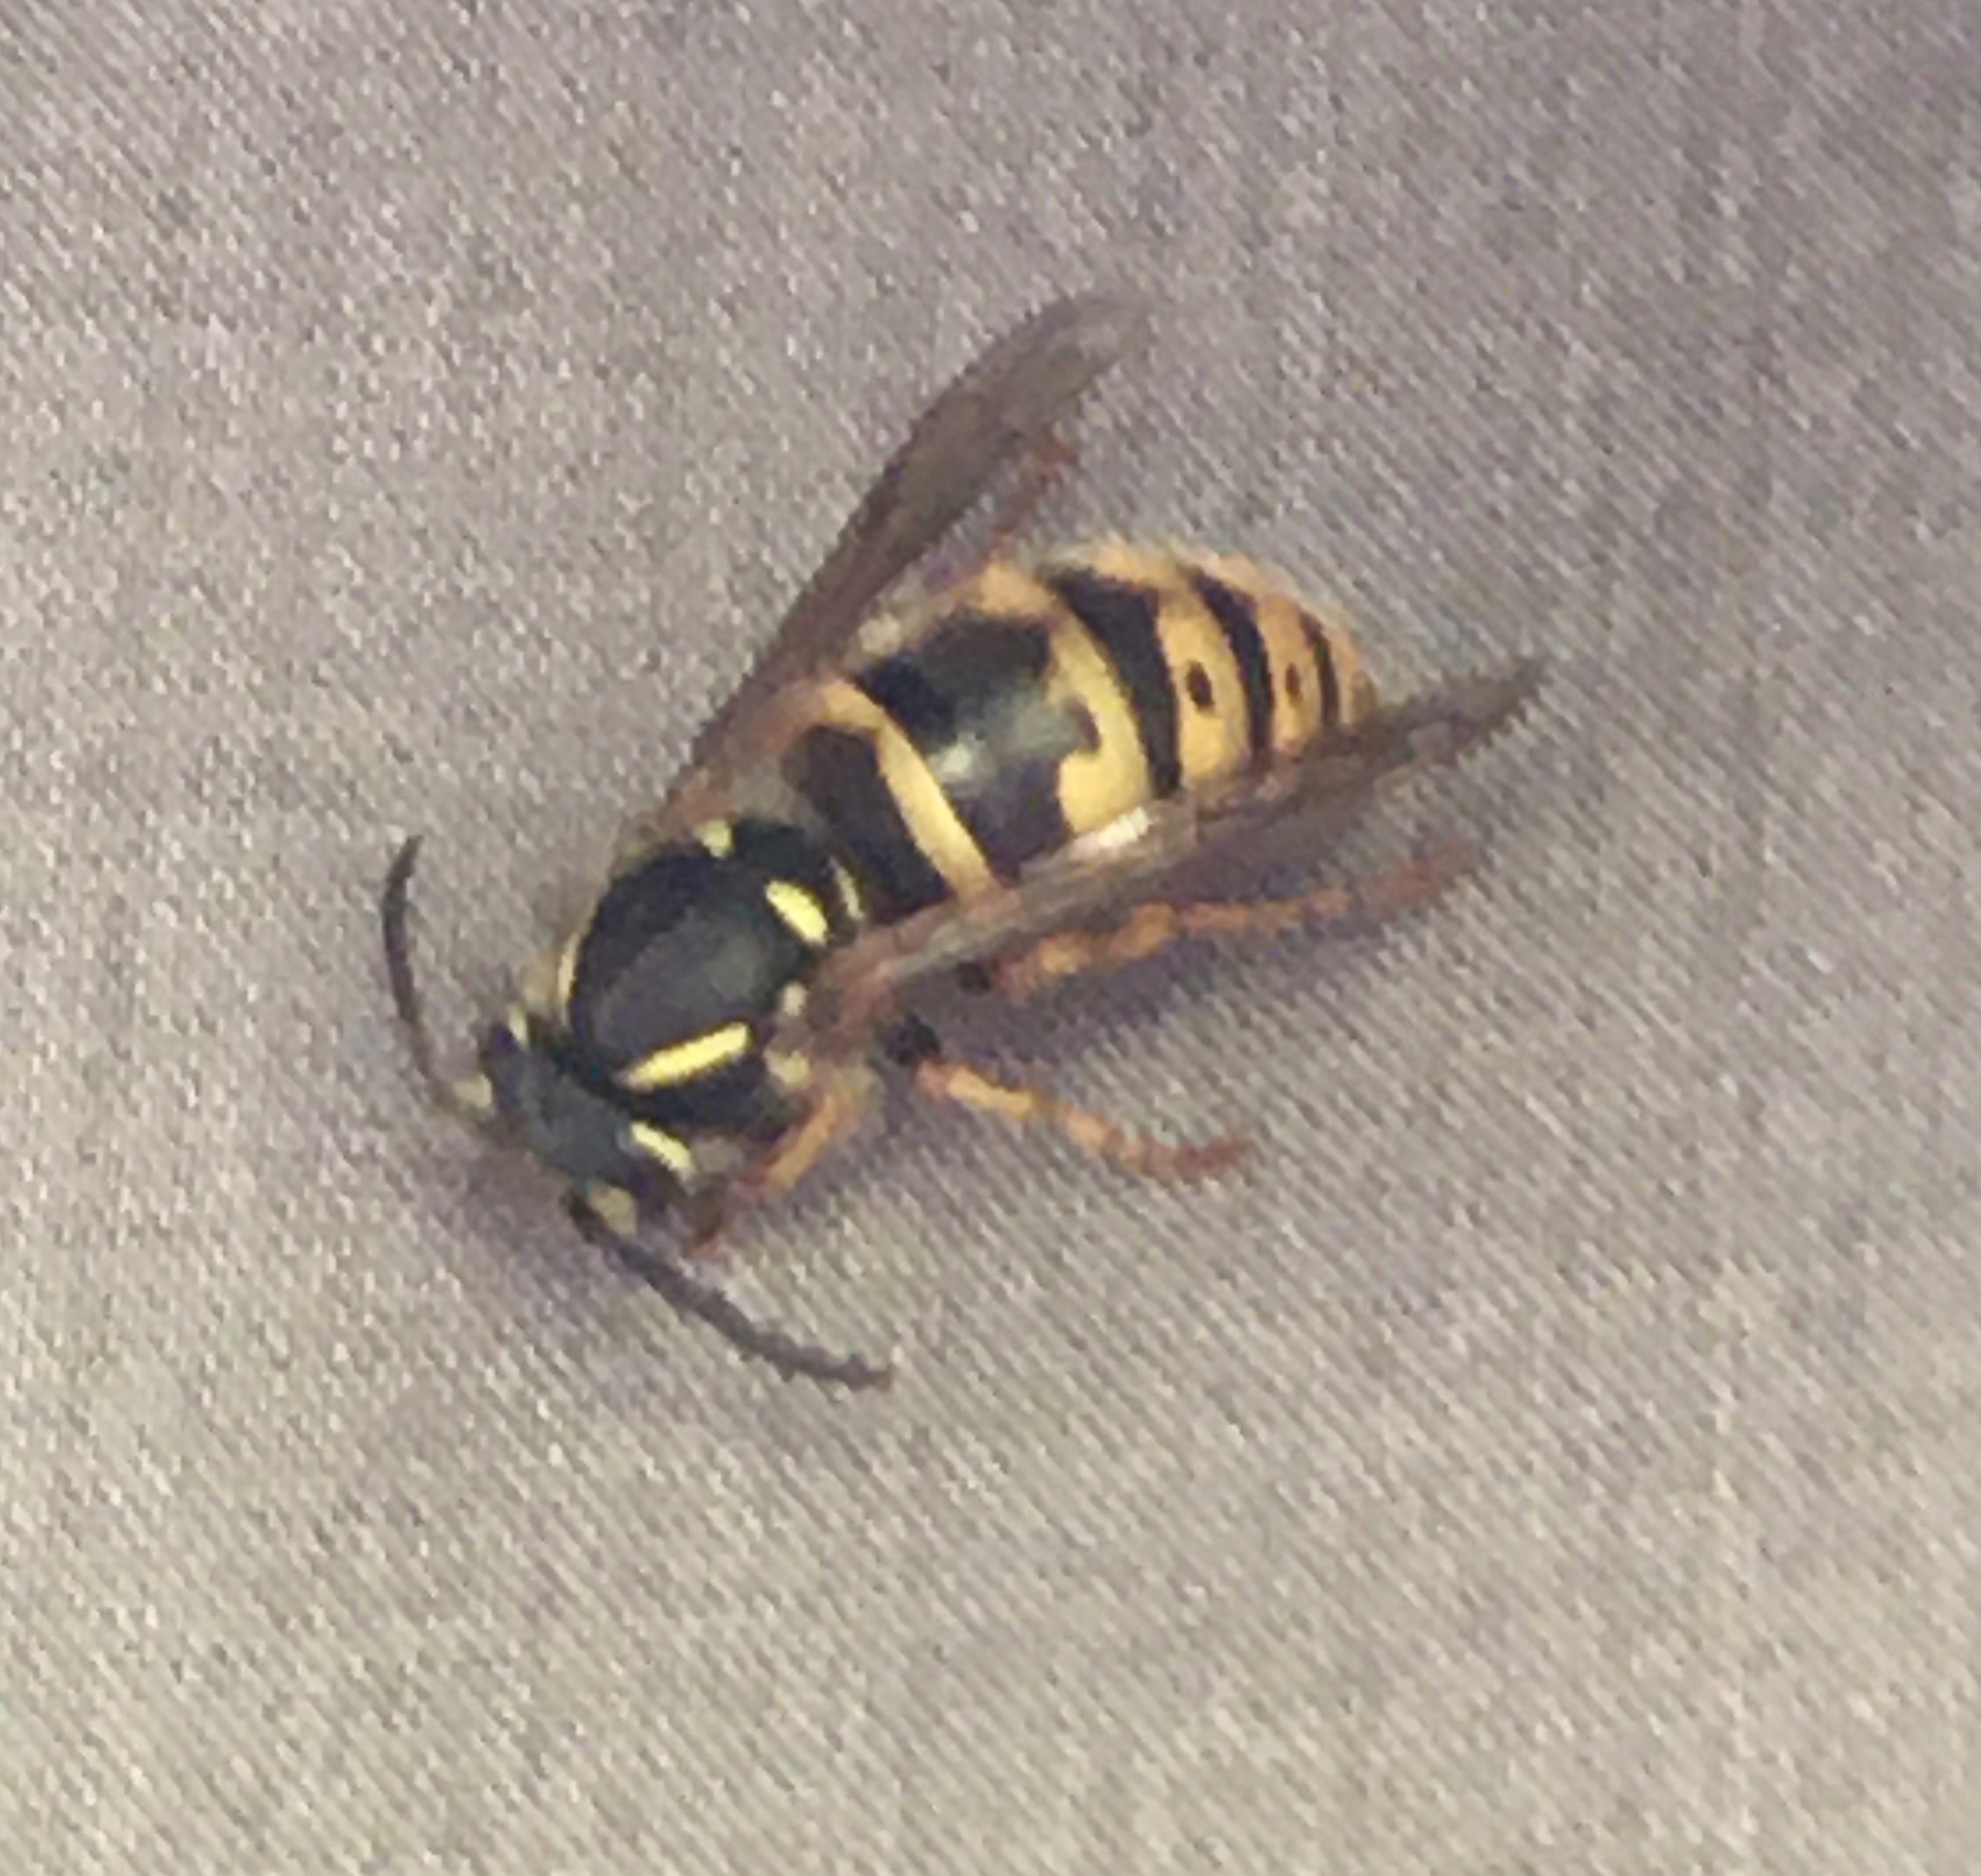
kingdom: Animalia
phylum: Arthropoda
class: Insecta
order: Hymenoptera
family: Vespidae
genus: Vespula
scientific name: Vespula vulgaris
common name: Common wasp
